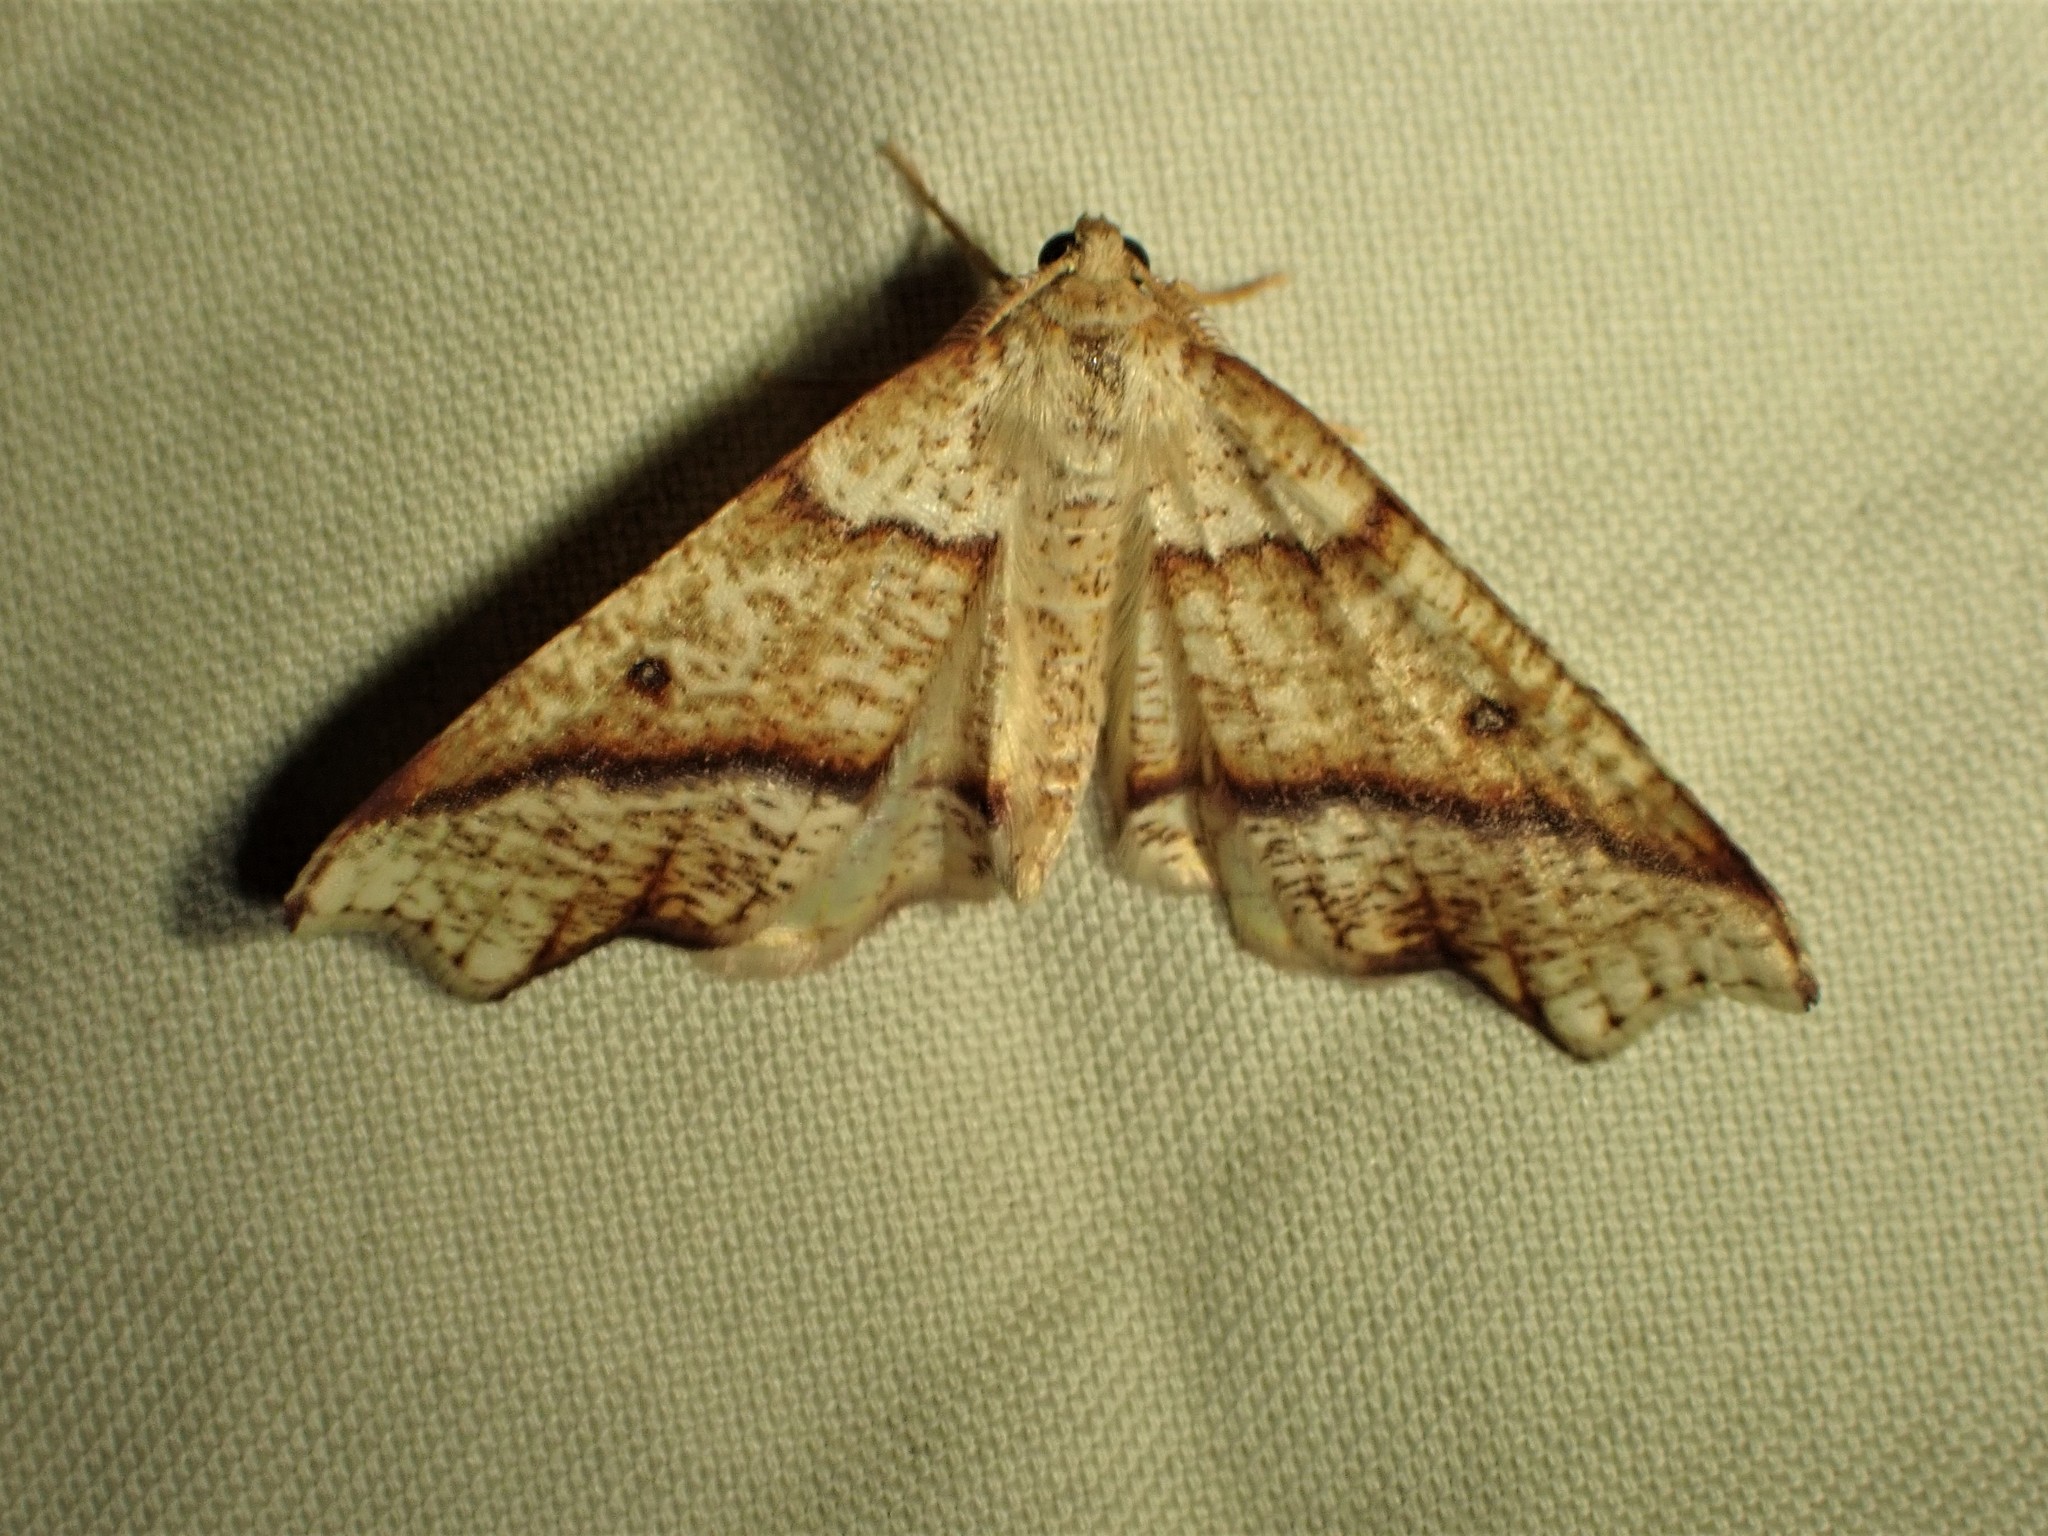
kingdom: Animalia
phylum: Arthropoda
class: Insecta
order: Lepidoptera
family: Geometridae
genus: Plagodis
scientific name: Plagodis alcoolaria
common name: Hollow-spotted plagodis
